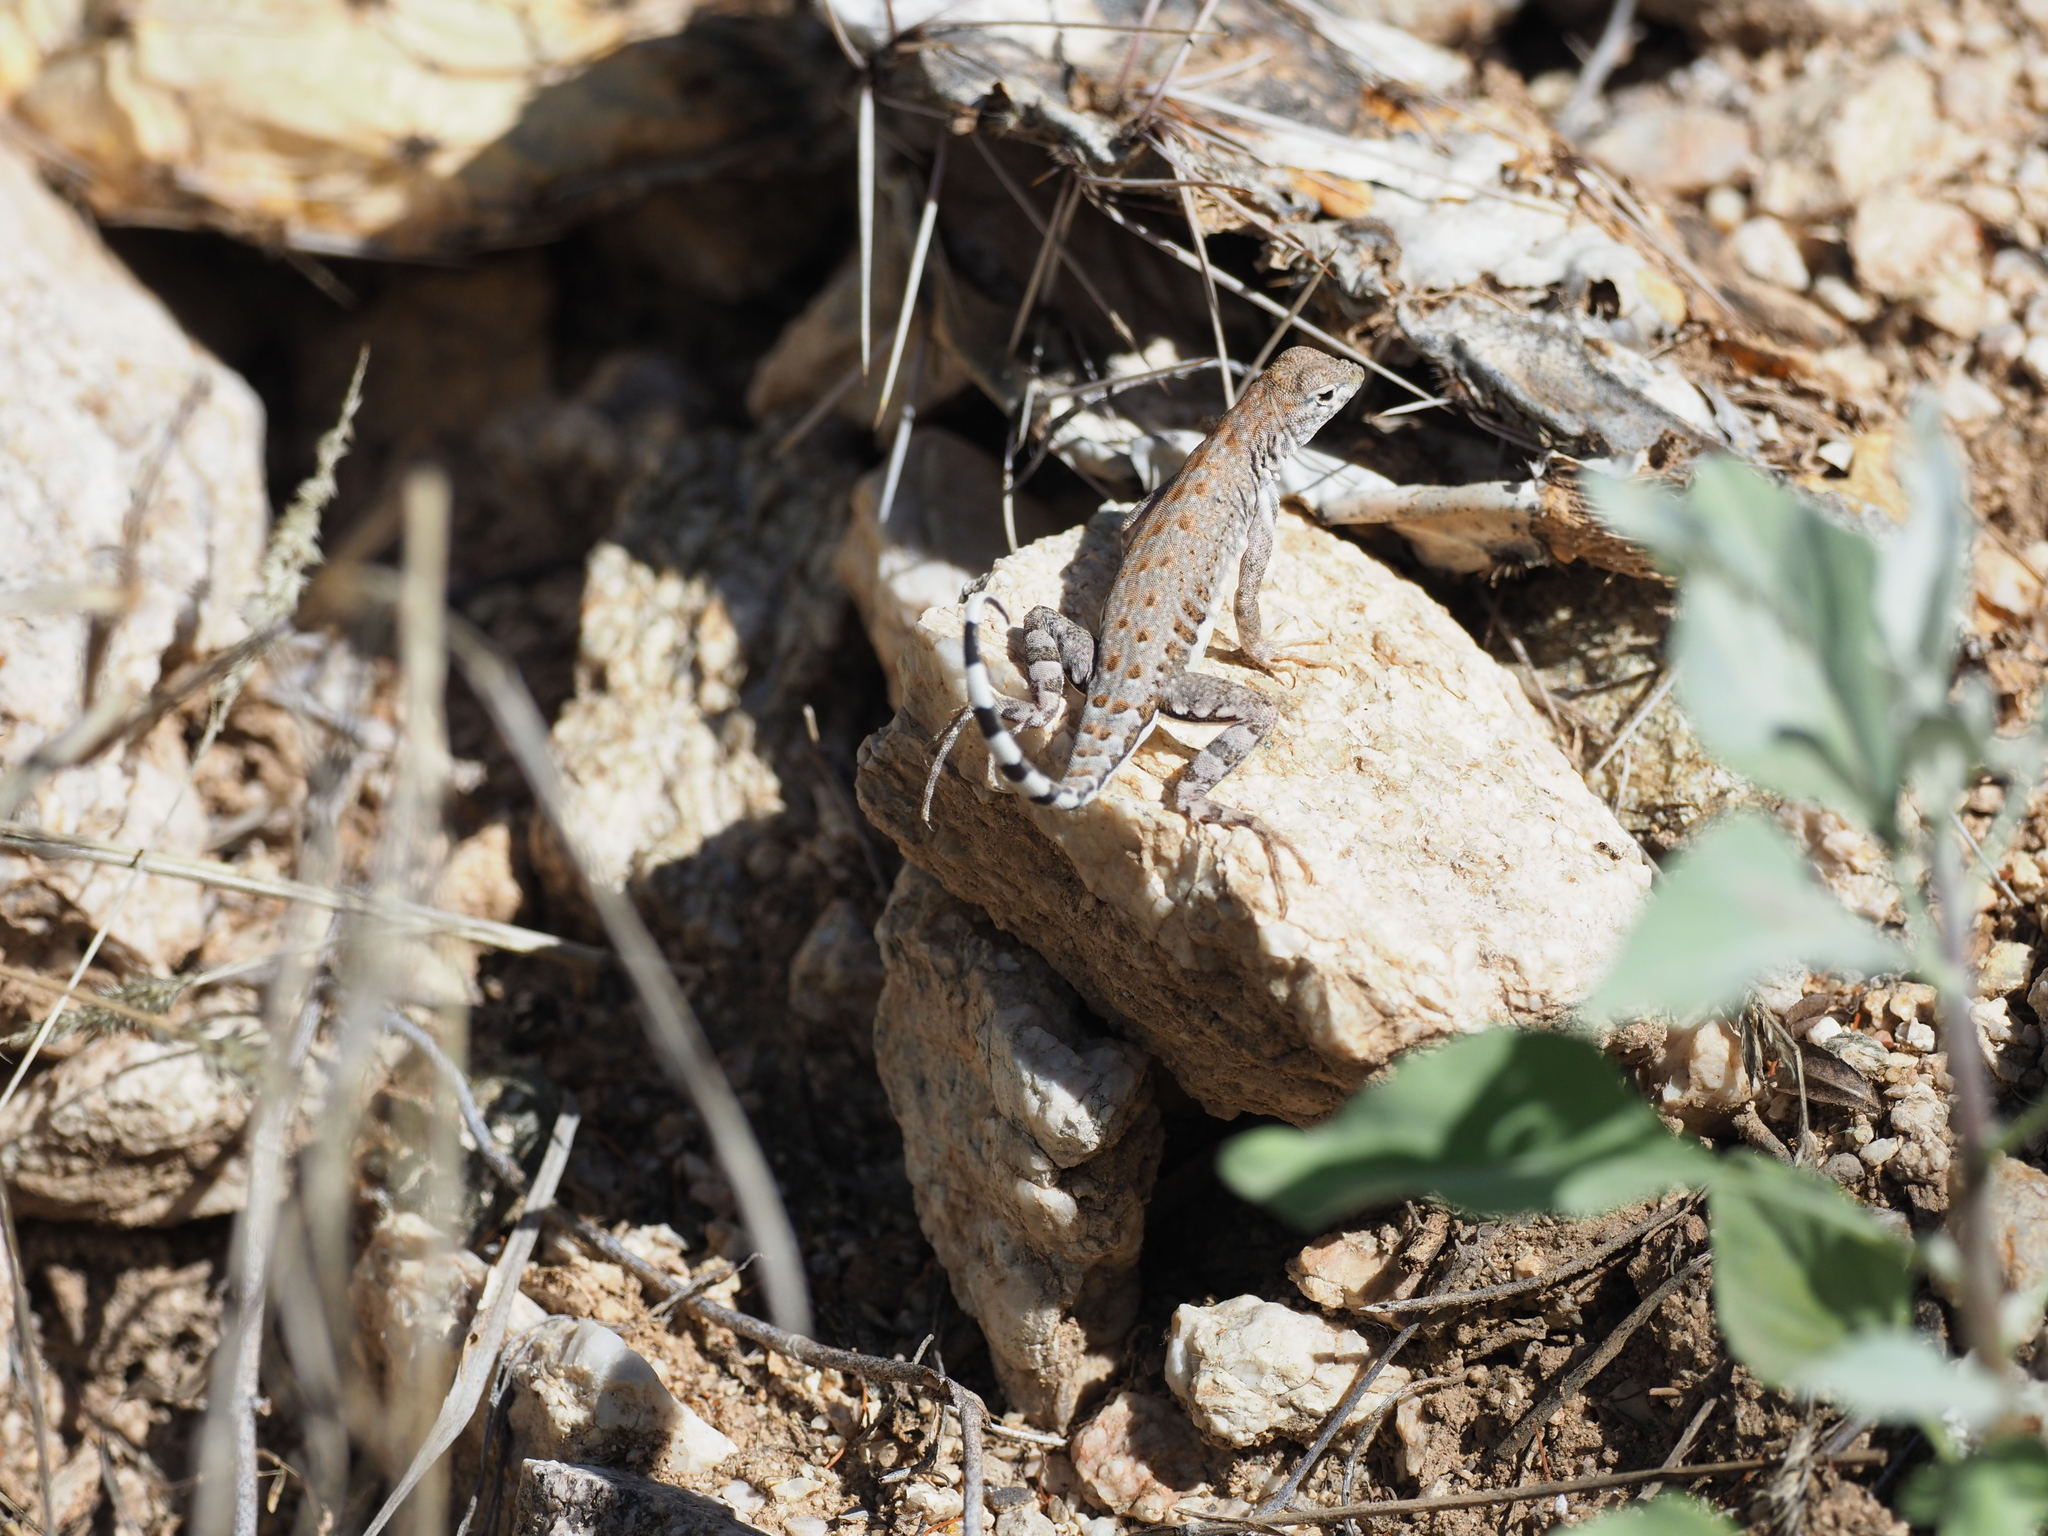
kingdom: Animalia
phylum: Chordata
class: Squamata
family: Phrynosomatidae
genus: Cophosaurus
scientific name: Cophosaurus texanus
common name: Greater earless lizard
